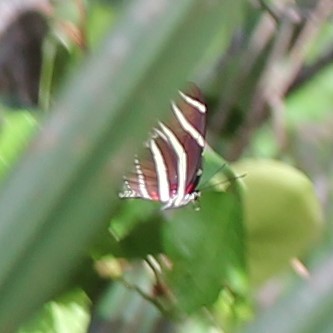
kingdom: Animalia
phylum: Arthropoda
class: Insecta
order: Lepidoptera
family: Nymphalidae
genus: Heliconius
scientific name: Heliconius charithonia
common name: Zebra long wing
